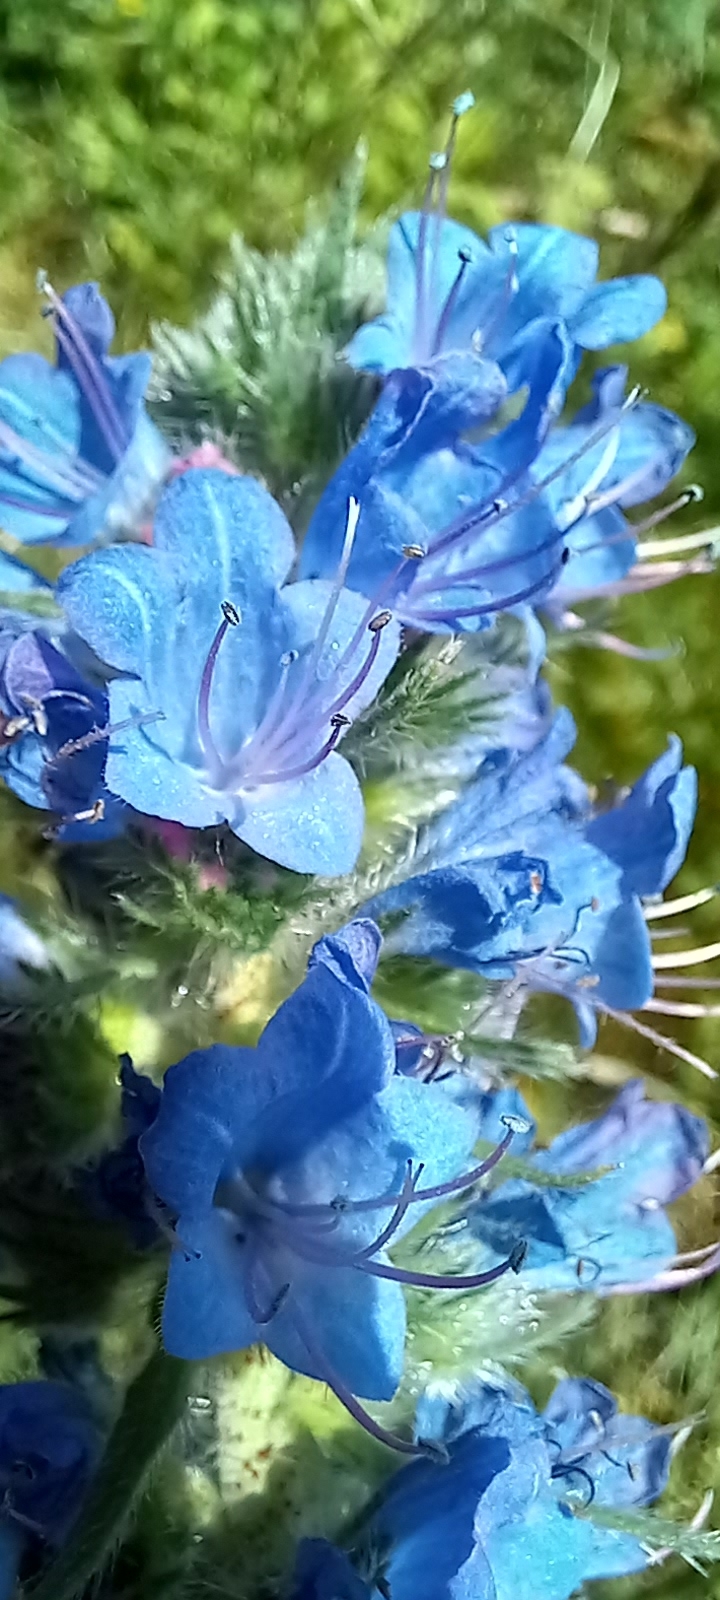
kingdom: Plantae
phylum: Tracheophyta
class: Magnoliopsida
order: Boraginales
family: Boraginaceae
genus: Echium
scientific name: Echium vulgare
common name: Common viper's bugloss
